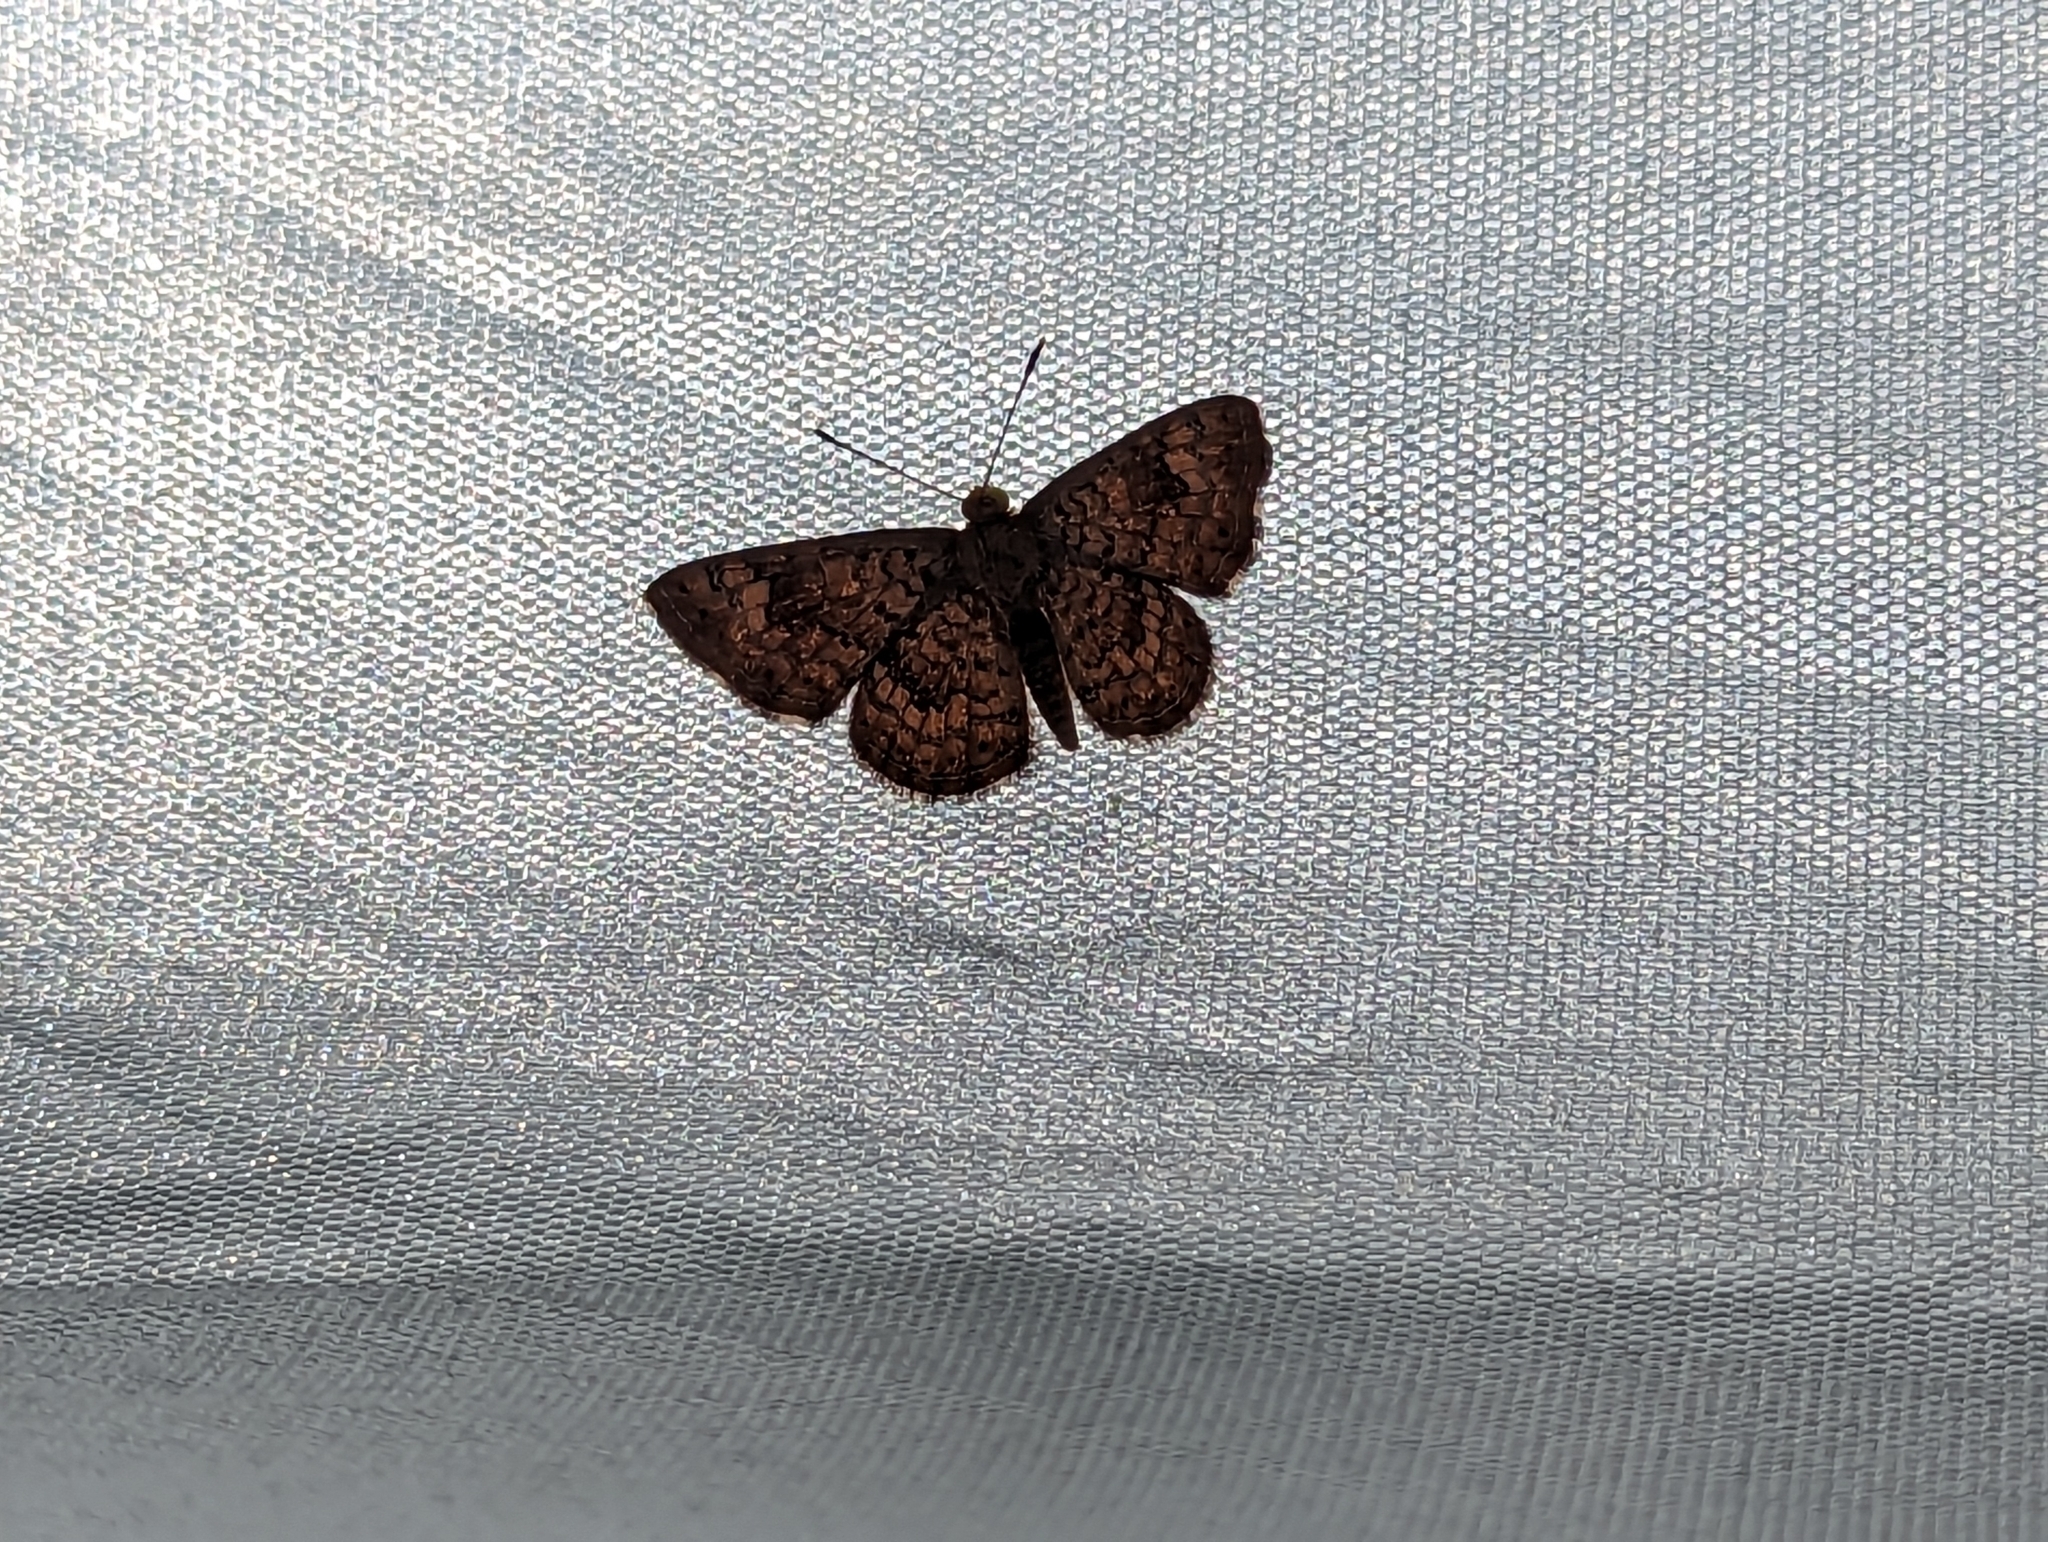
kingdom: Animalia
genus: Calephelis
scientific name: Calephelis nemesis
